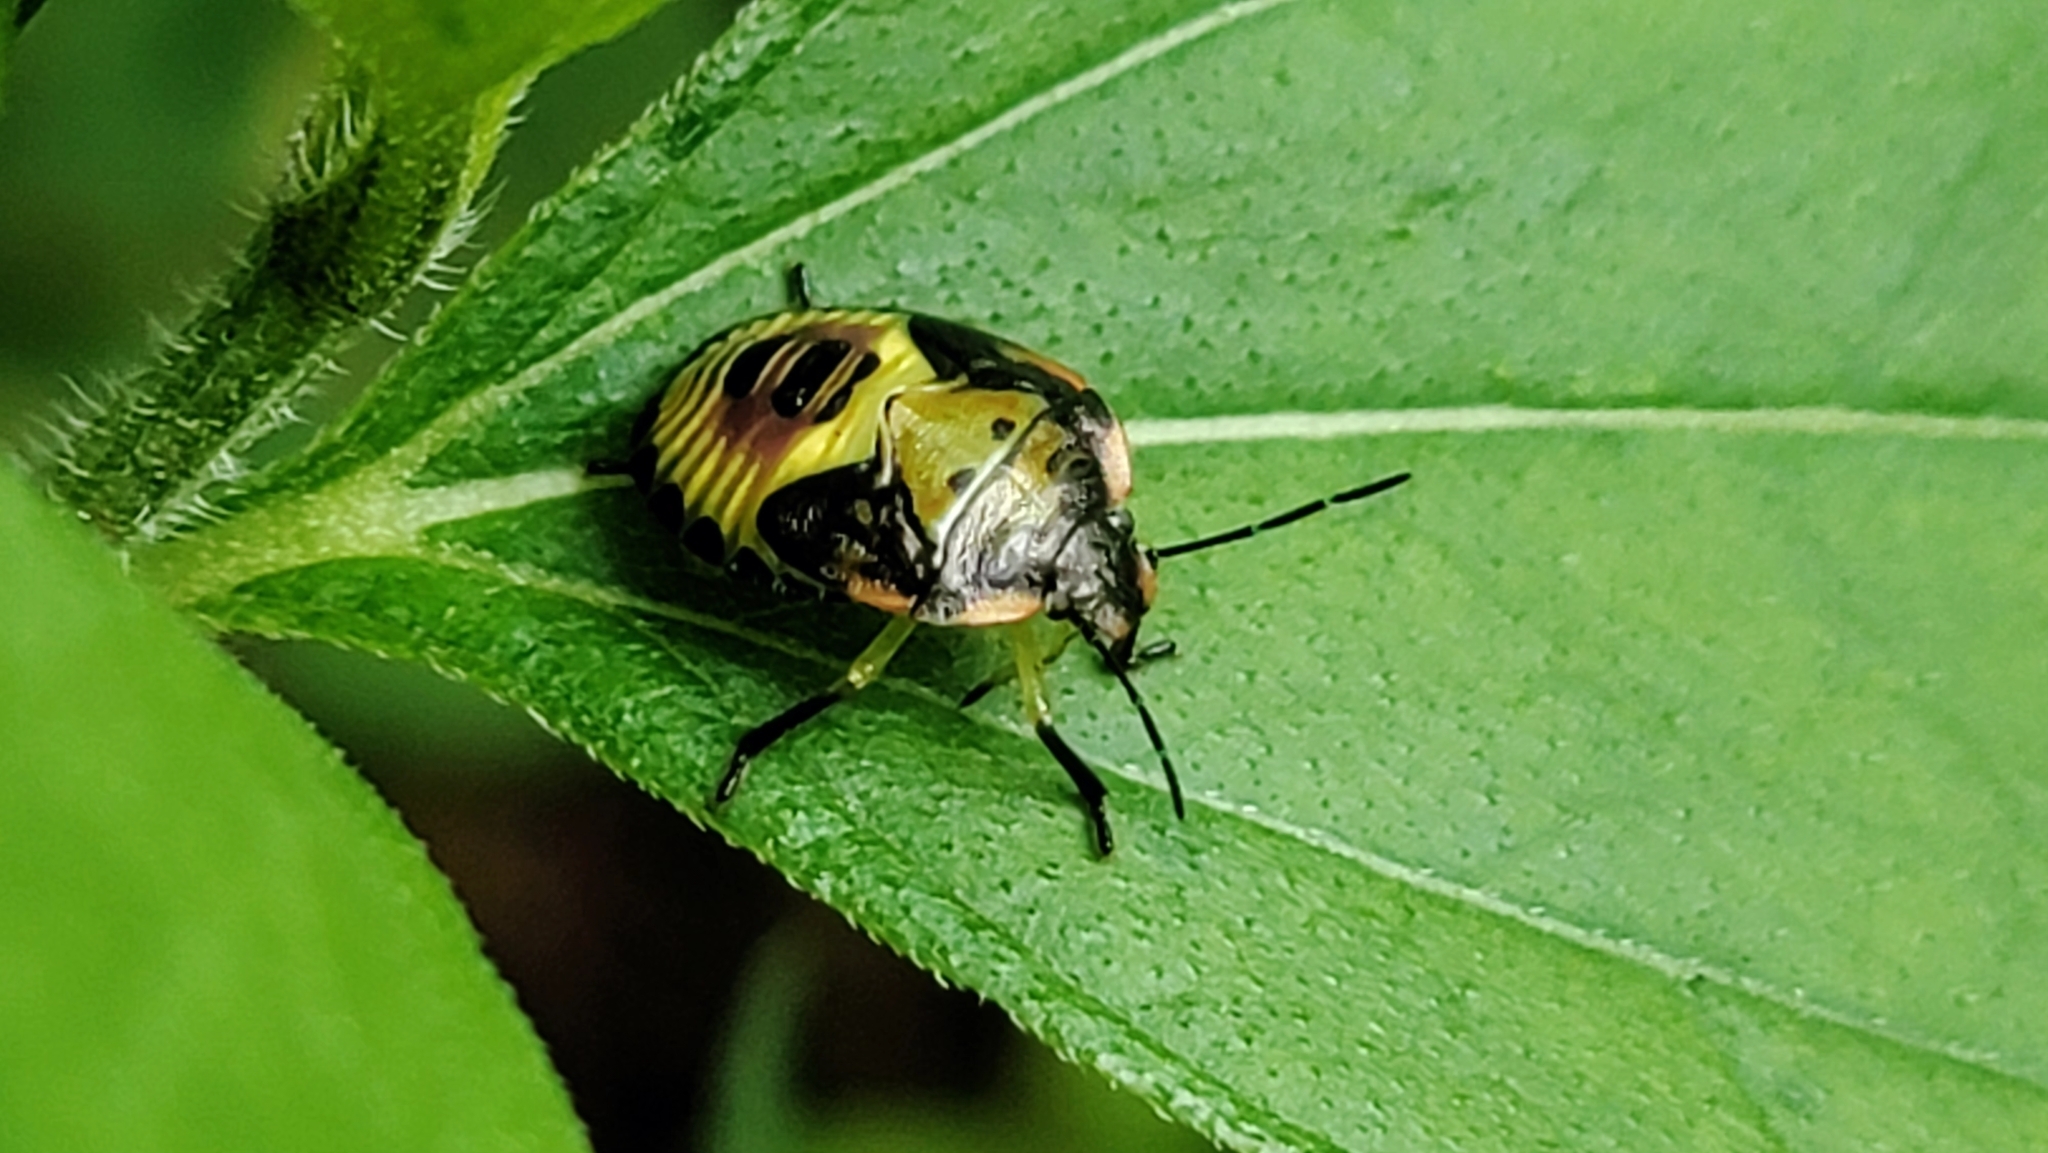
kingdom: Animalia
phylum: Arthropoda
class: Insecta
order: Hemiptera
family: Pentatomidae
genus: Chinavia
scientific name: Chinavia hilaris
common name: Green stink bug
